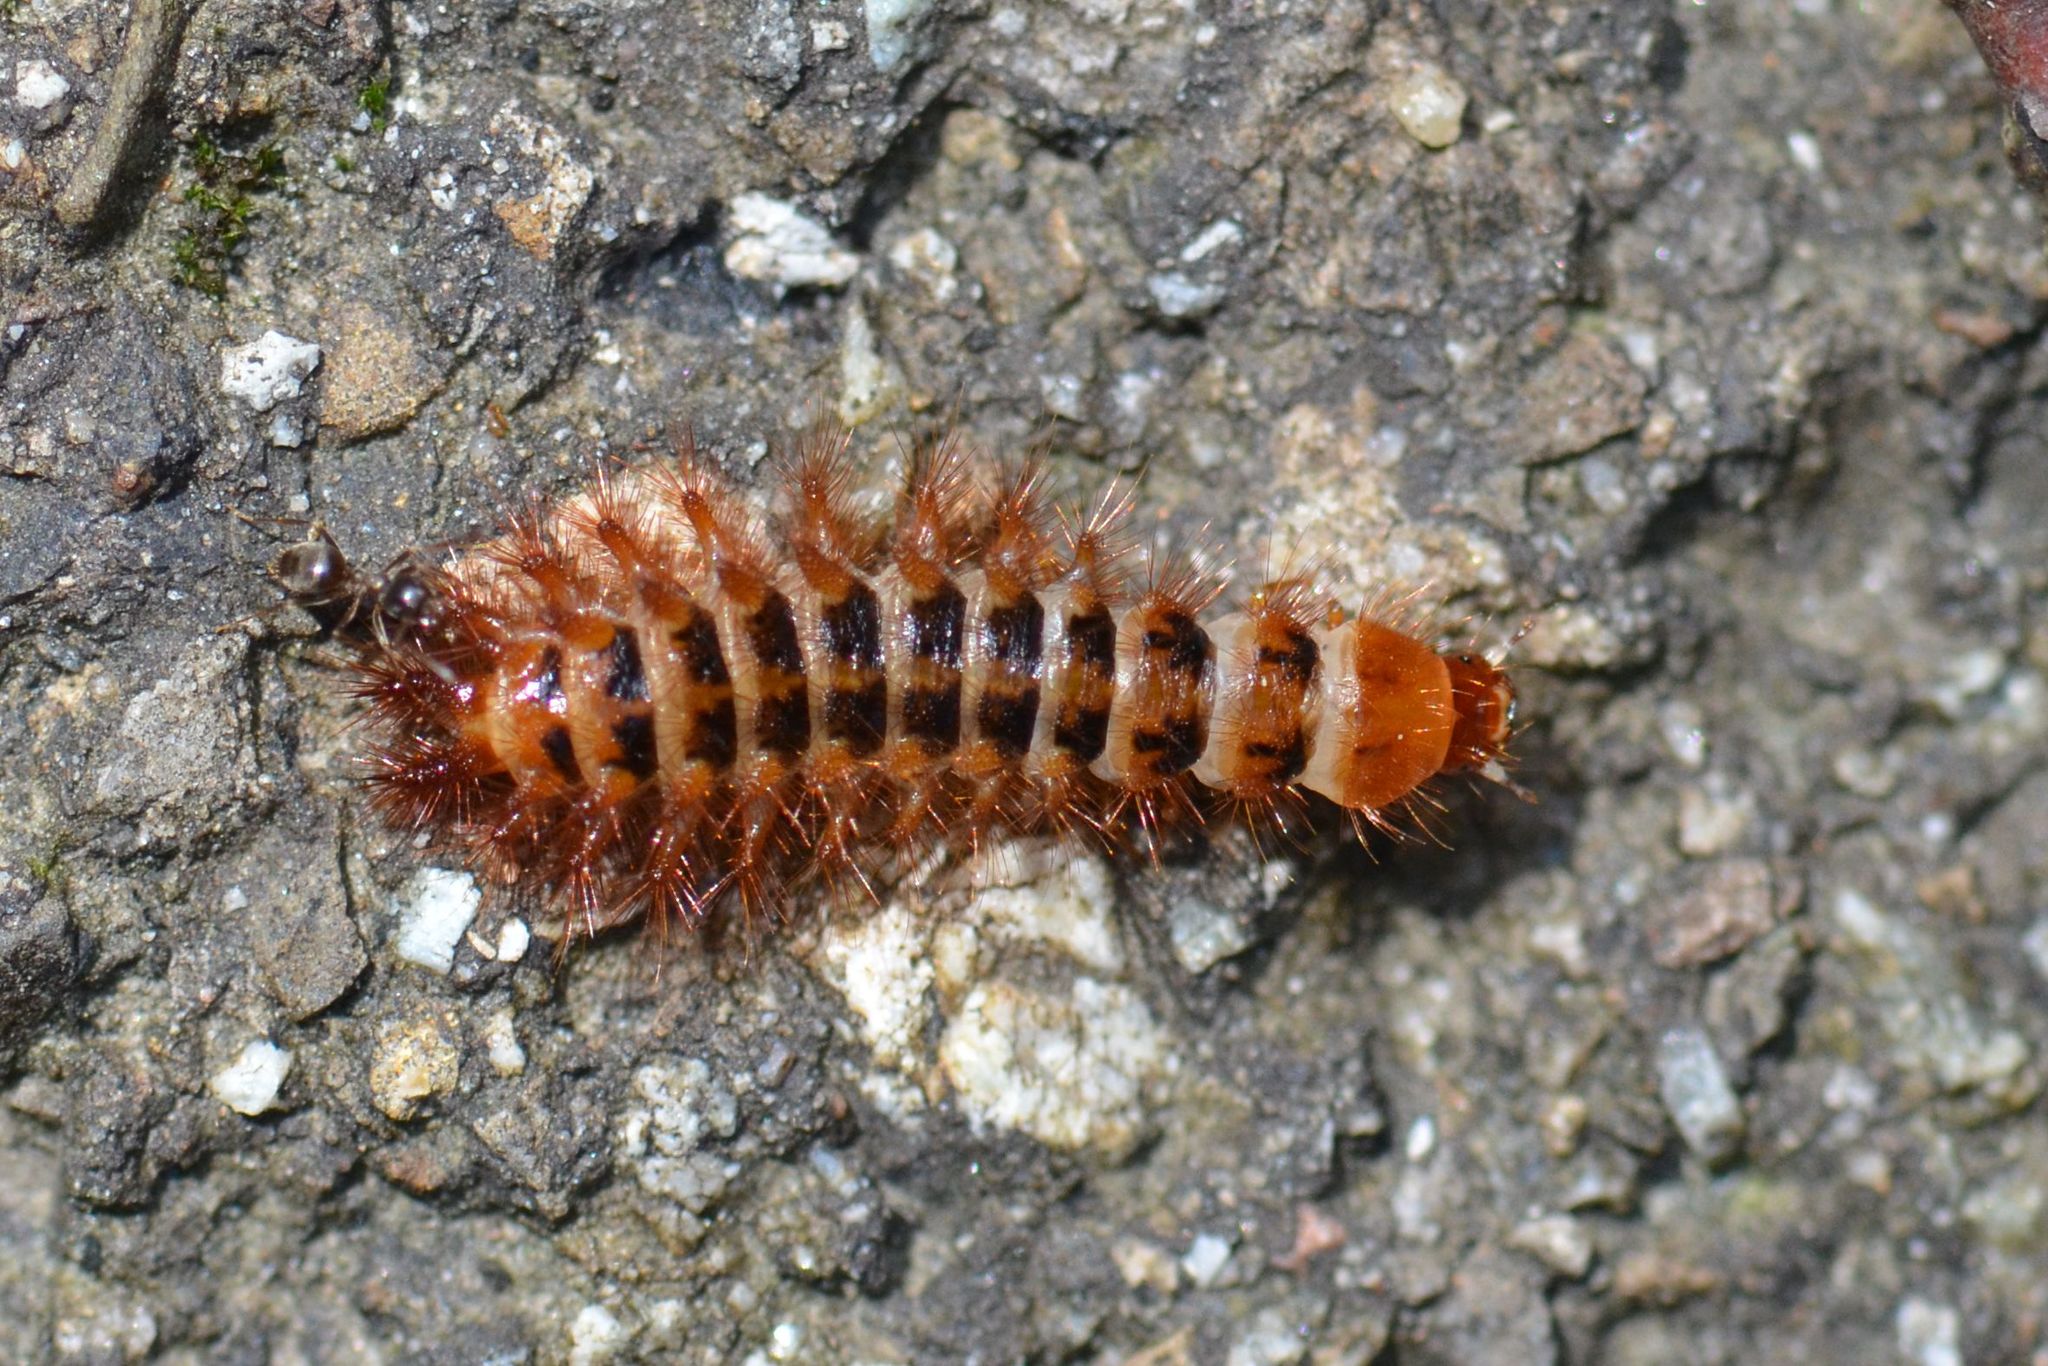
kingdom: Animalia
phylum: Arthropoda
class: Insecta
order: Coleoptera
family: Drilidae
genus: Drilus
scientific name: Drilus flavescens
